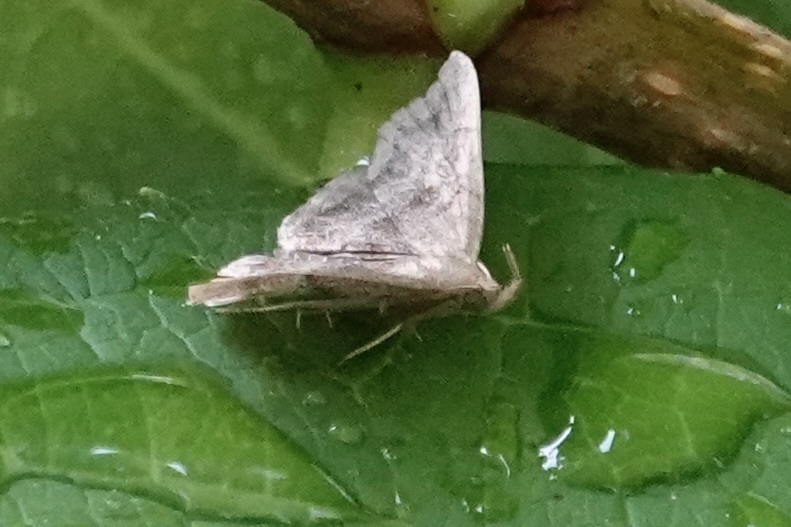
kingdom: Animalia
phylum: Arthropoda
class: Insecta
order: Lepidoptera
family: Erebidae
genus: Phalaenostola
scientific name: Phalaenostola larentioides
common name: Black-banded owlet
